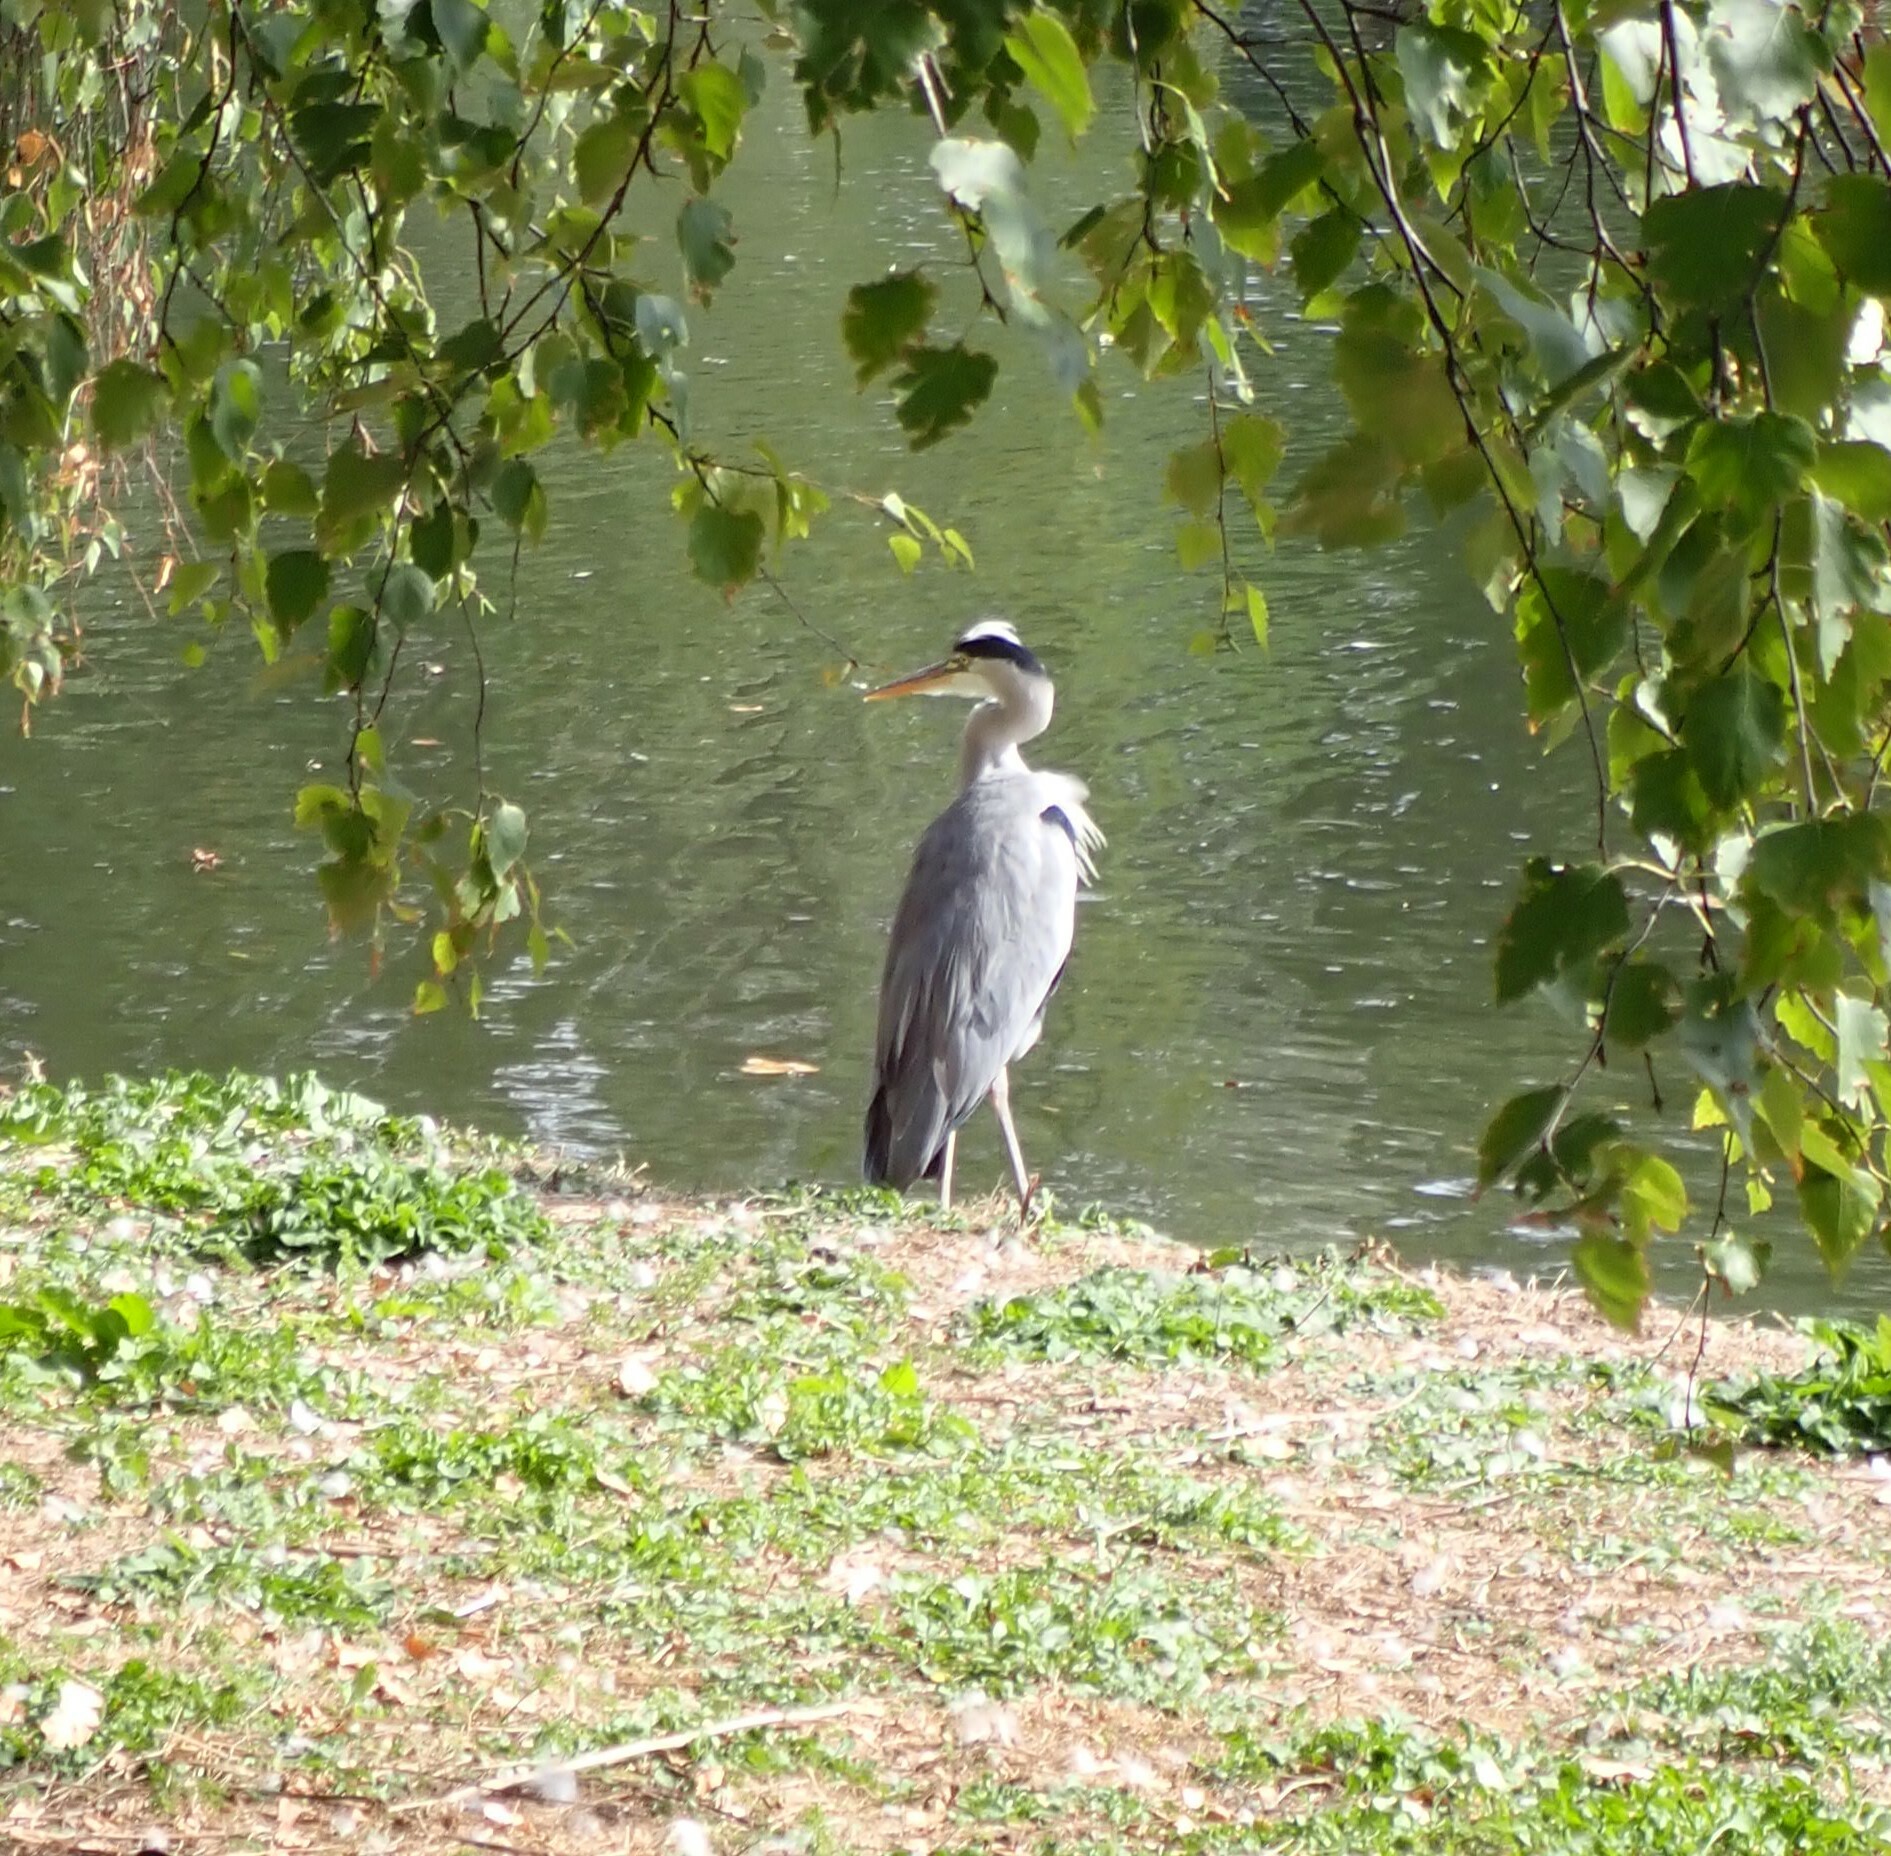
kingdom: Animalia
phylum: Chordata
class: Aves
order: Pelecaniformes
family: Ardeidae
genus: Ardea
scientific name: Ardea cinerea
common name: Grey heron
